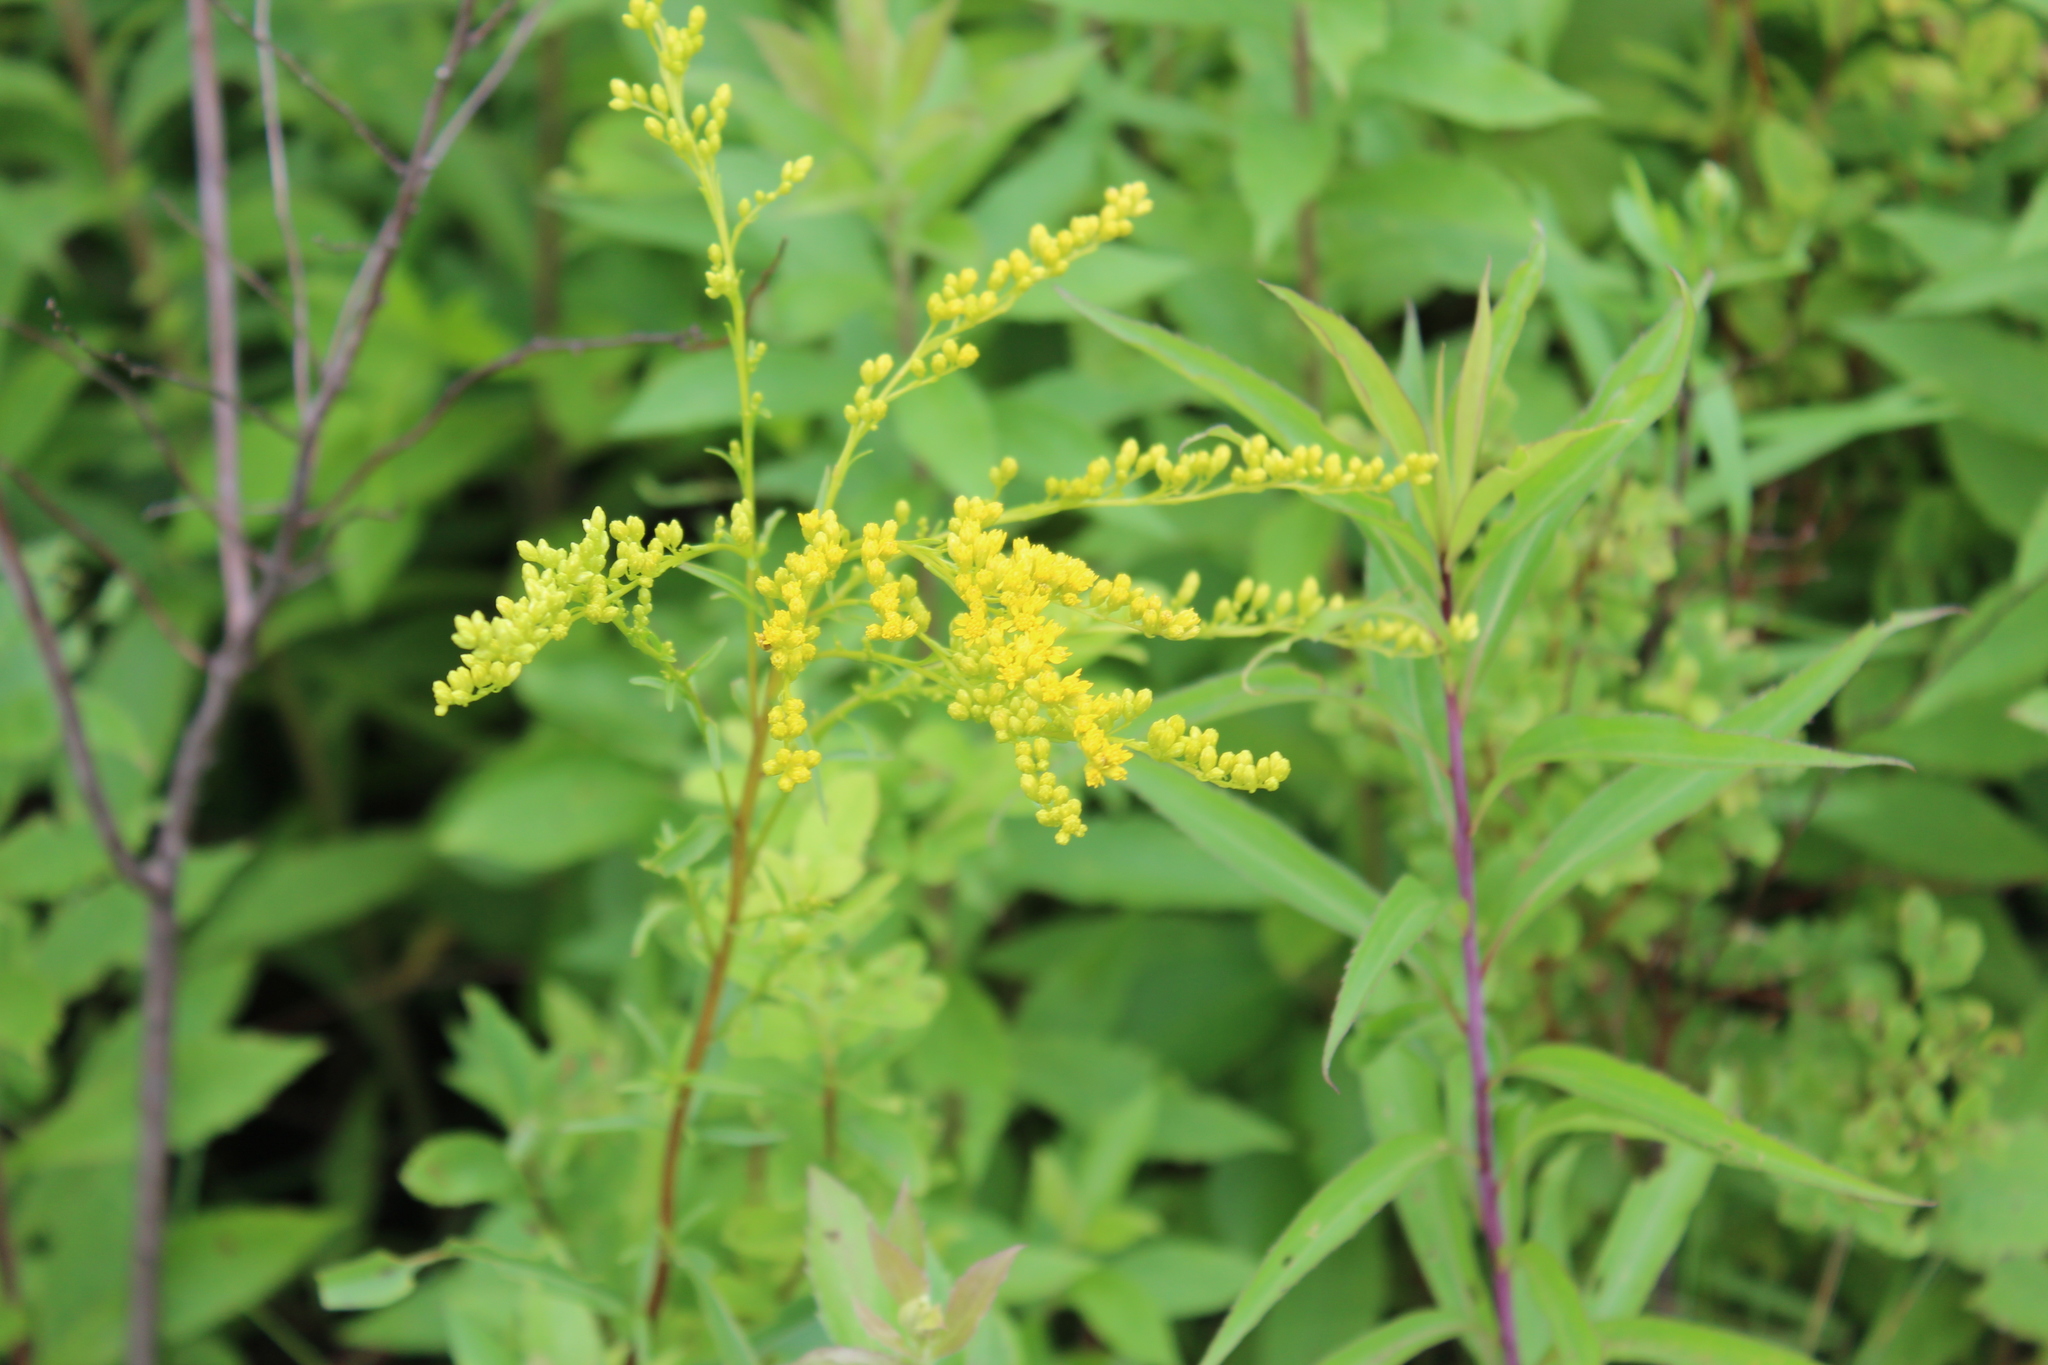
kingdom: Plantae
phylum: Tracheophyta
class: Magnoliopsida
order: Asterales
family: Asteraceae
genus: Solidago
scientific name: Solidago juncea
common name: Early goldenrod
